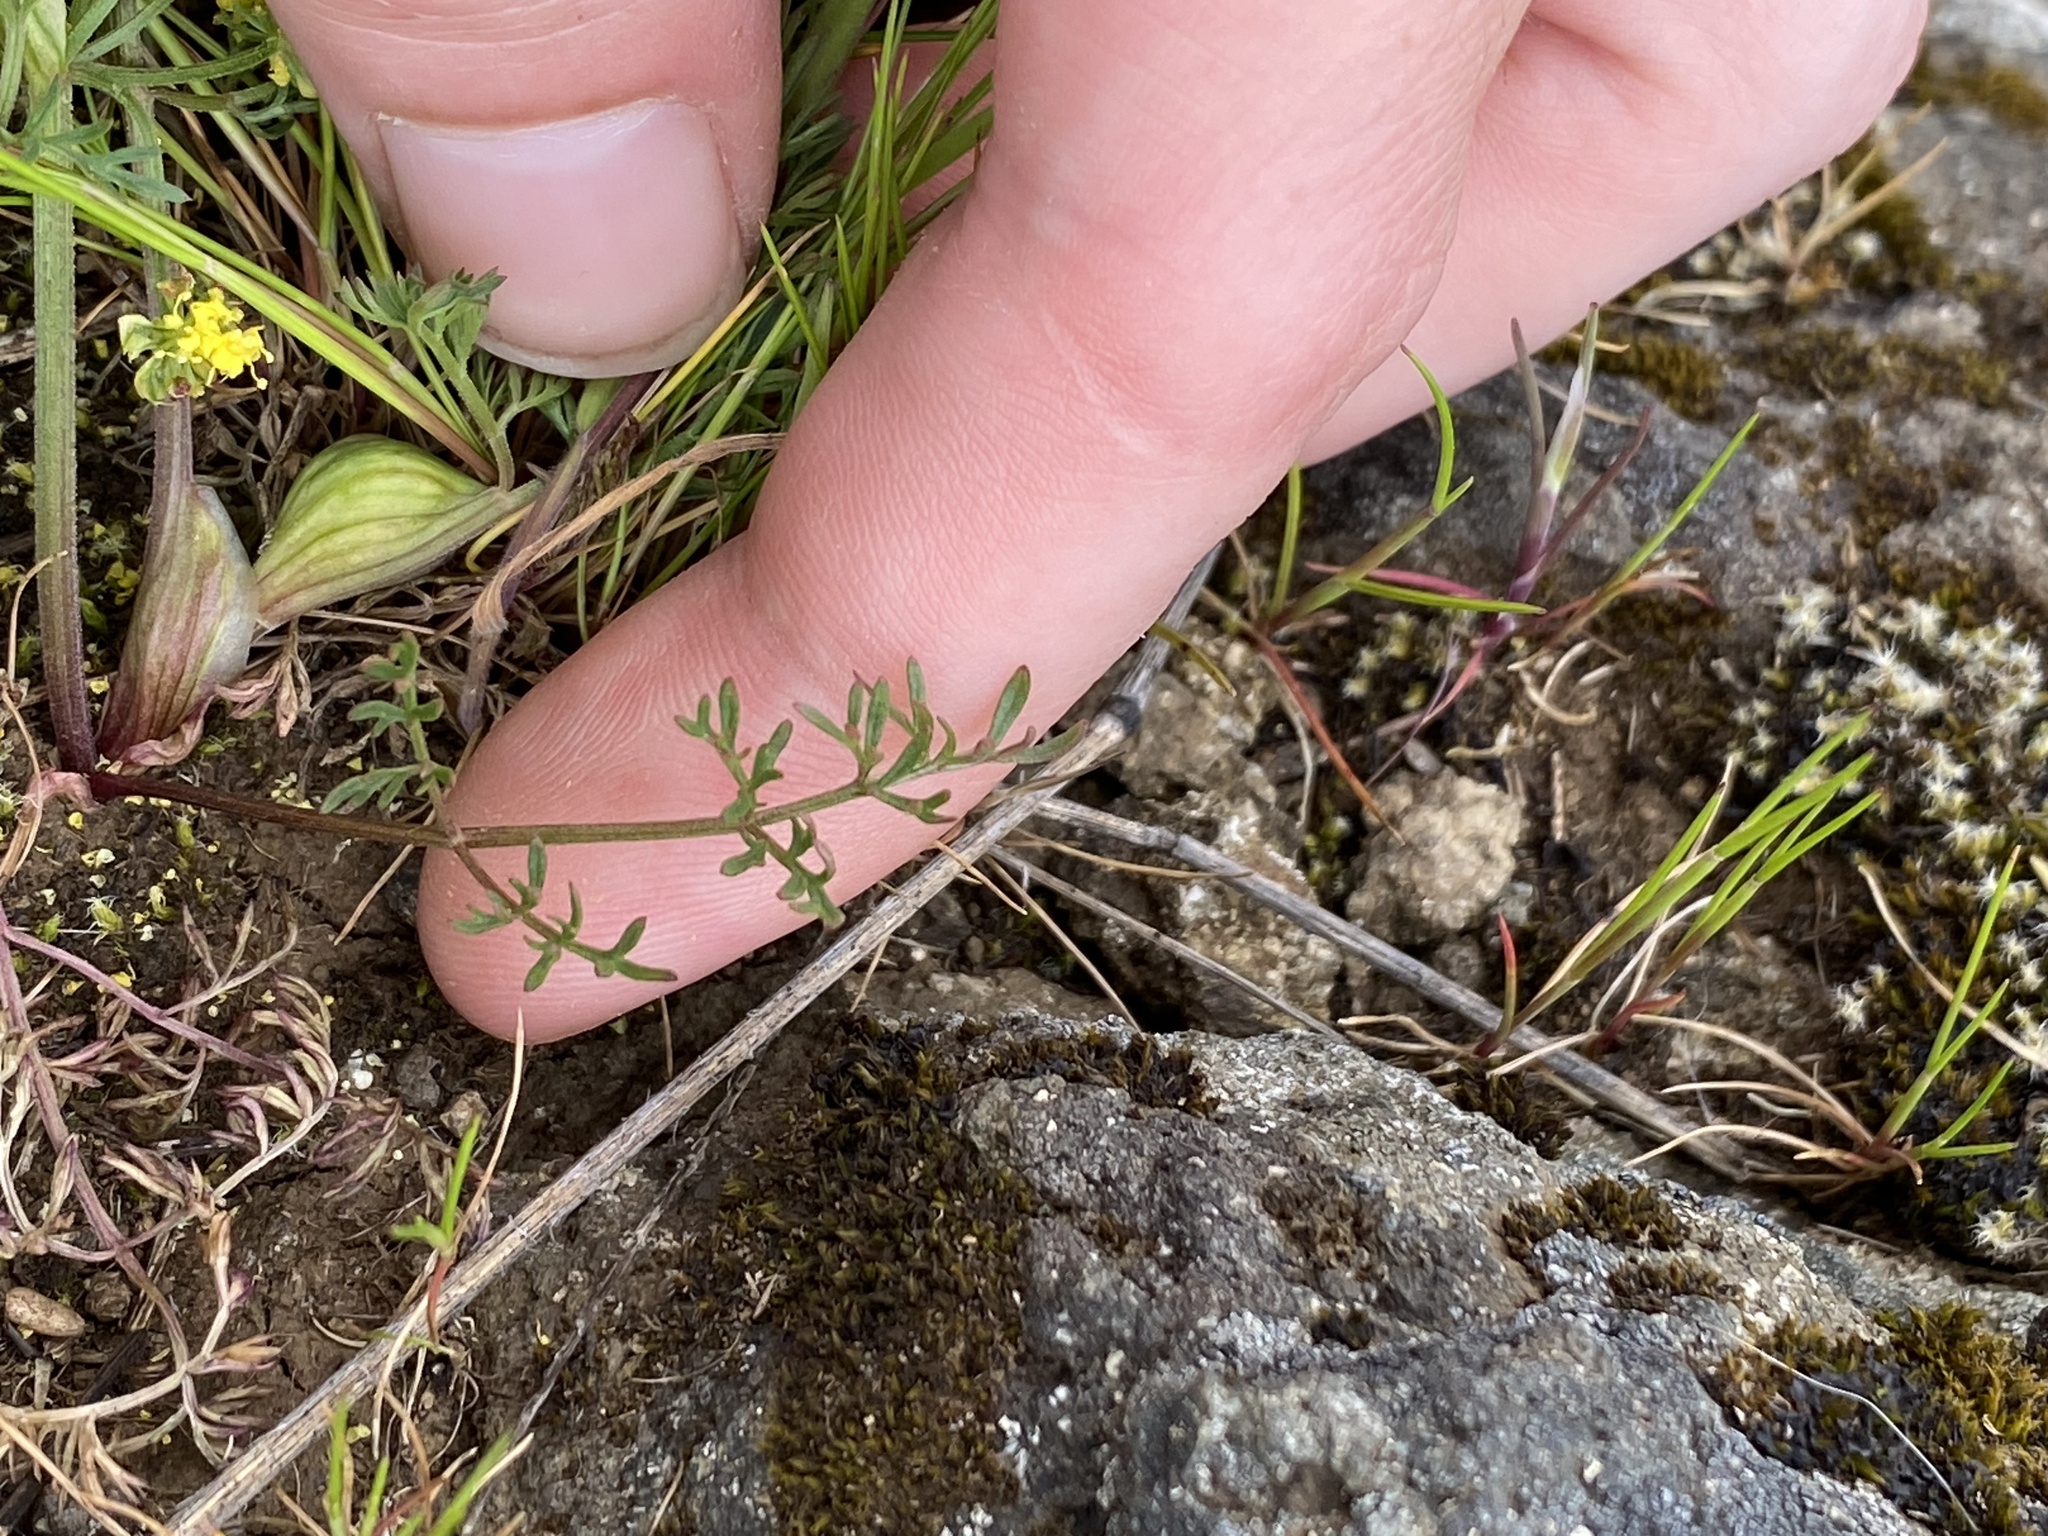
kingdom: Plantae
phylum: Tracheophyta
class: Magnoliopsida
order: Apiales
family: Apiaceae
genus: Lomatium
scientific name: Lomatium utriculatum
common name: Fine-leaf desert-parsley
